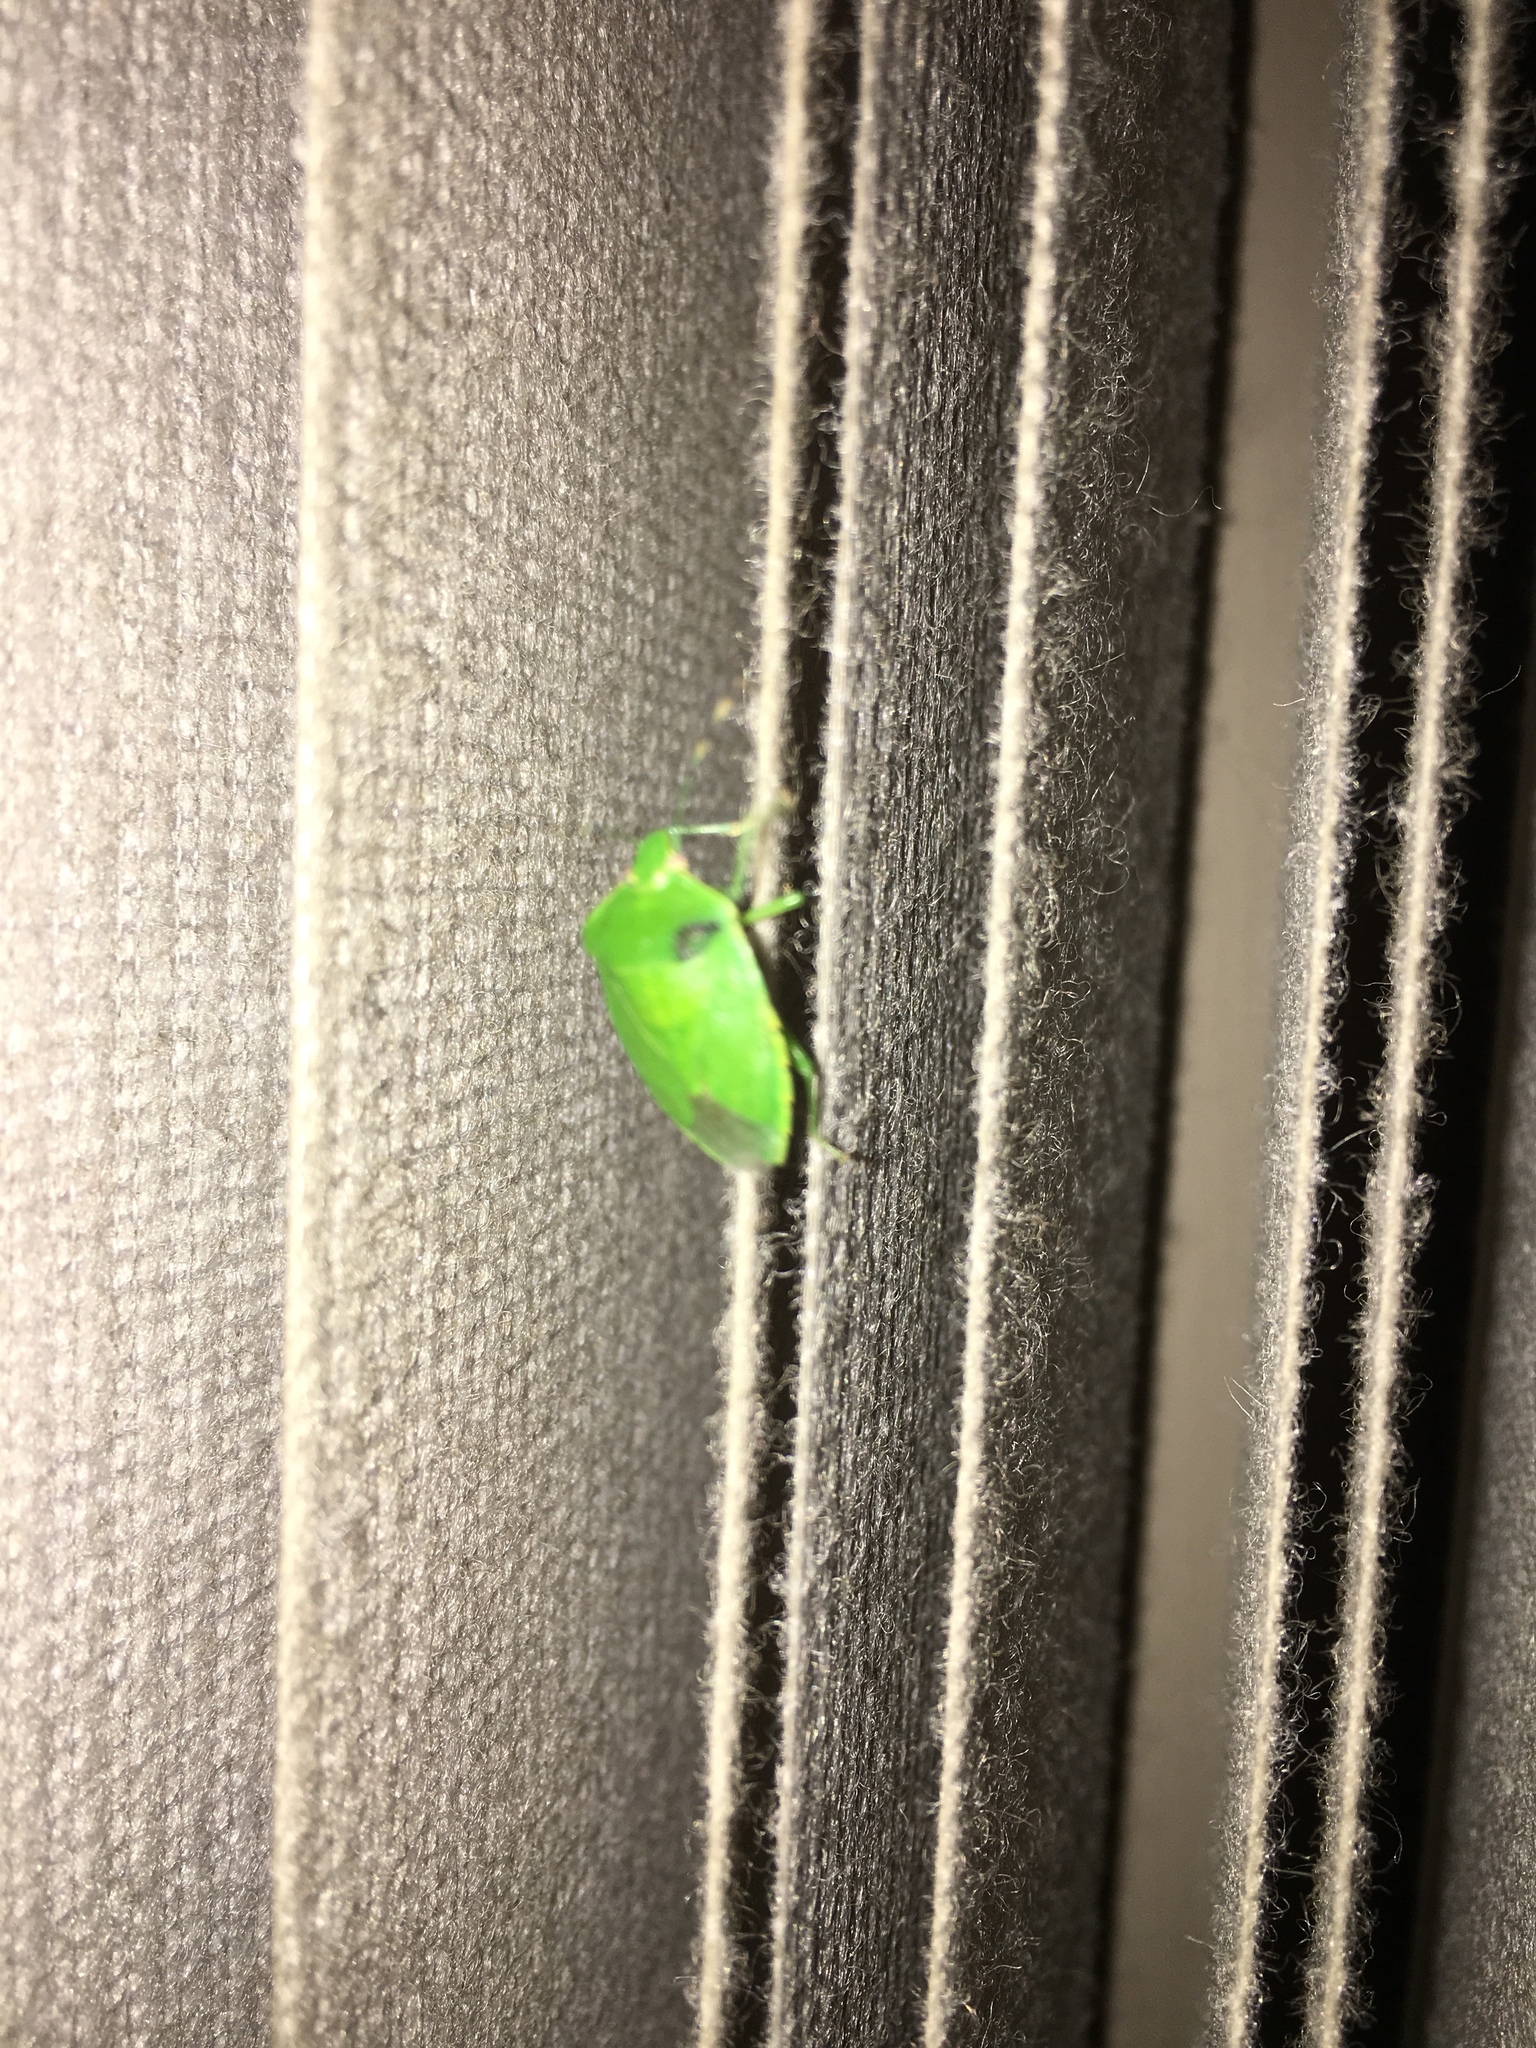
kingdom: Animalia
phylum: Arthropoda
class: Insecta
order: Hemiptera
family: Pentatomidae
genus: Chinavia
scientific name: Chinavia hilaris
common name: Green stink bug
